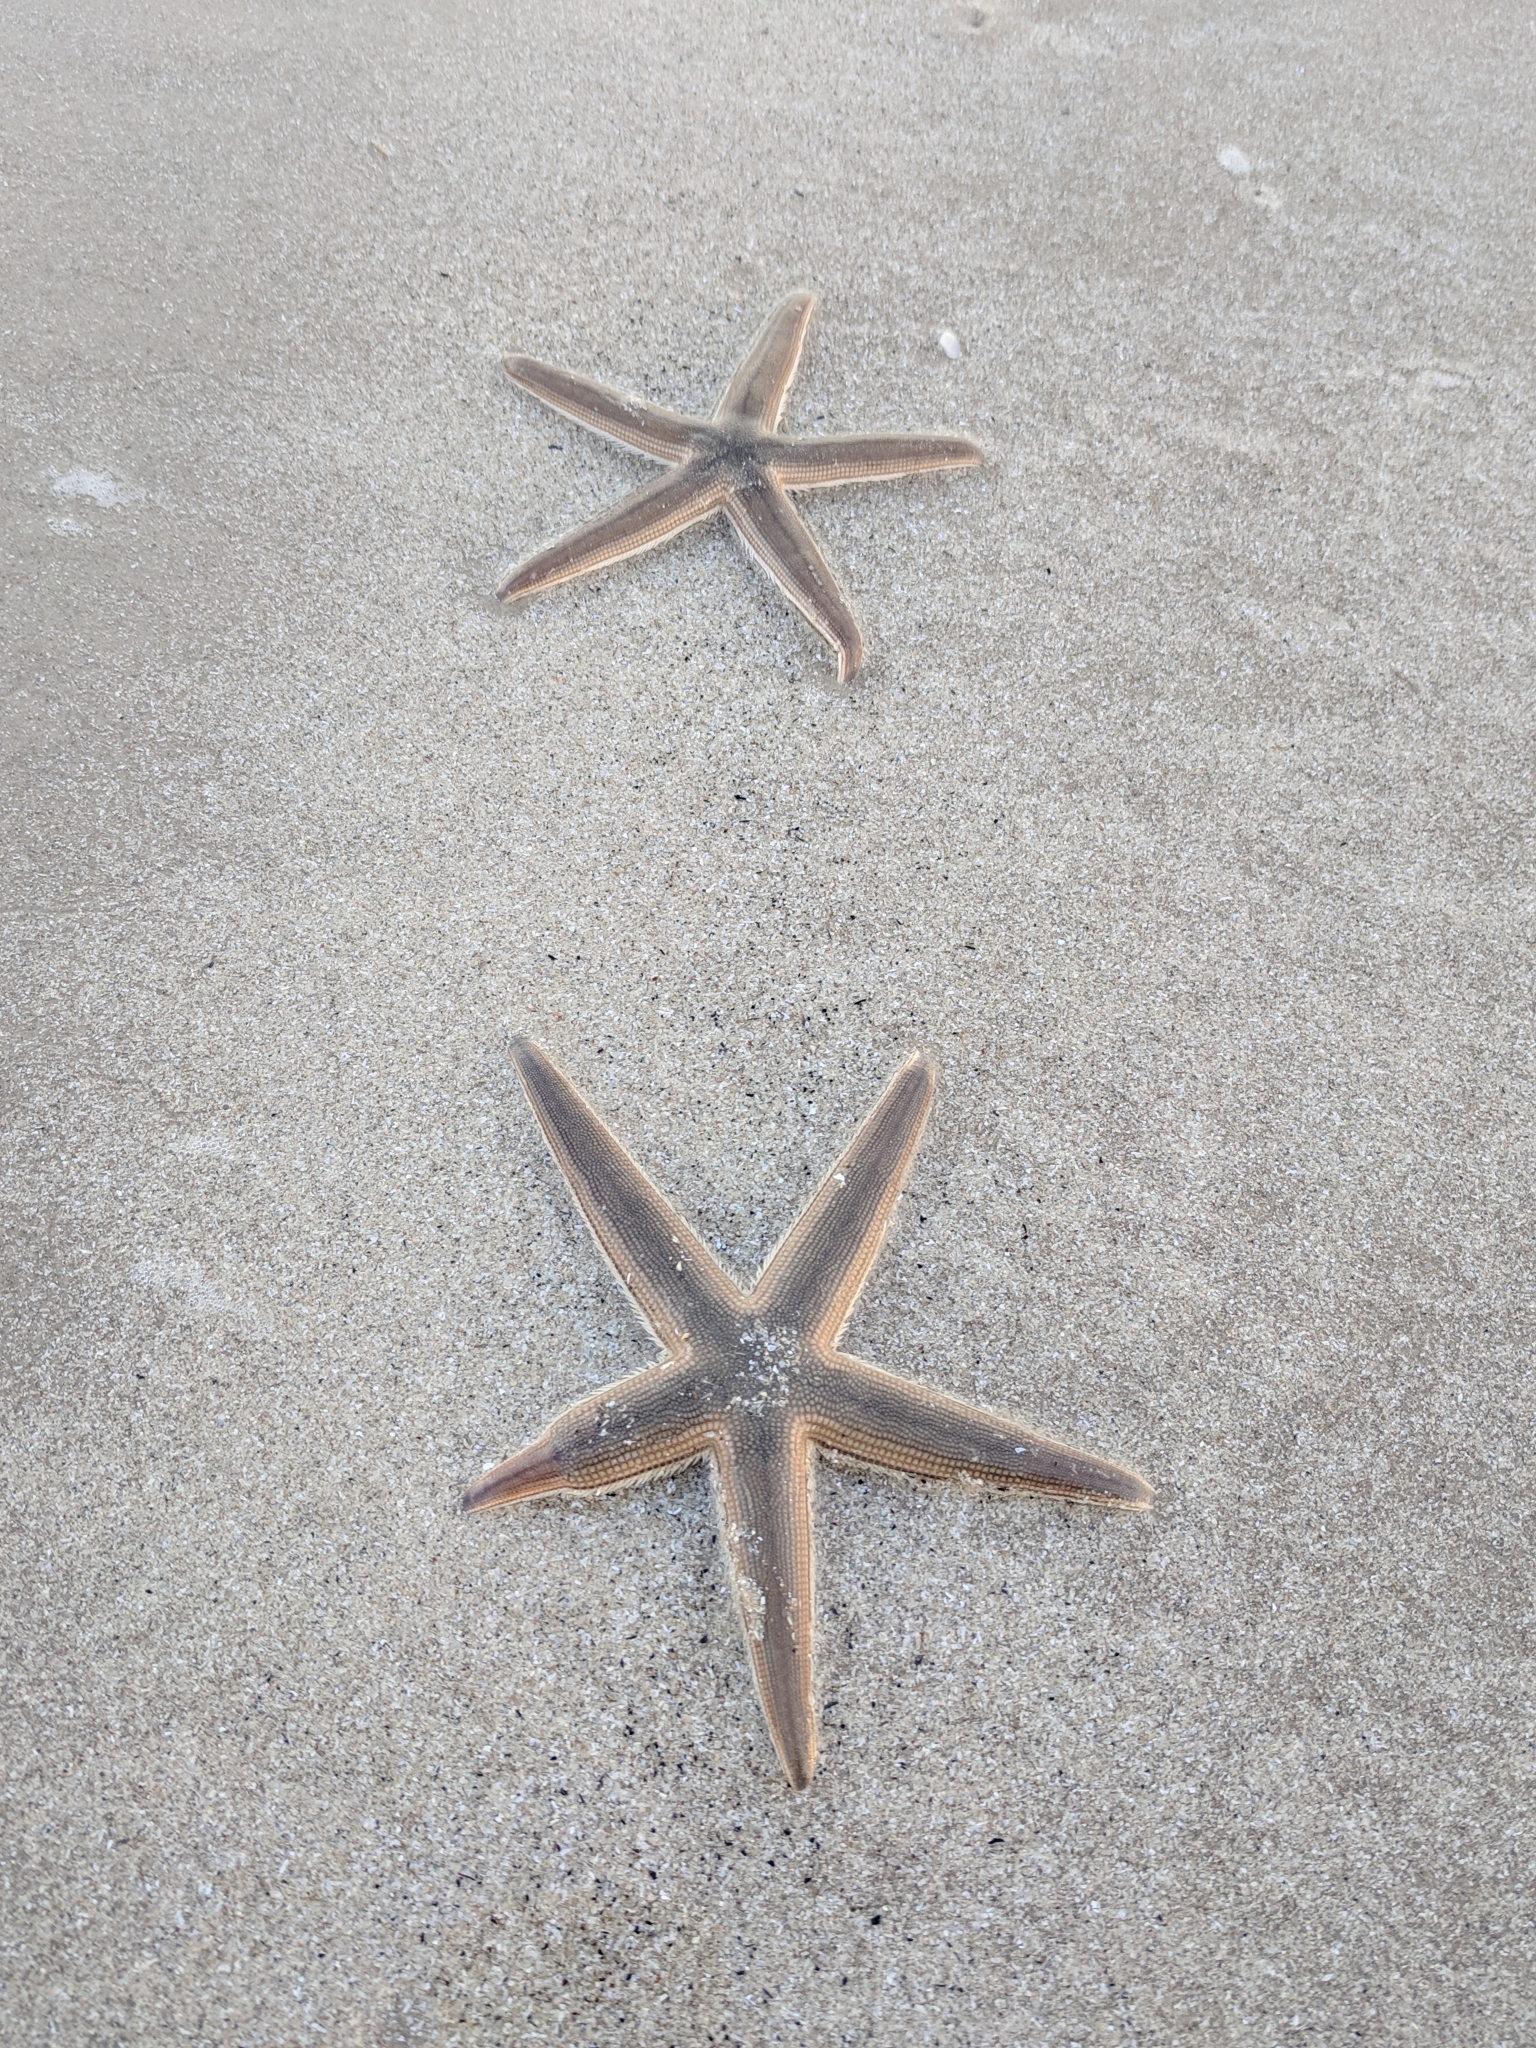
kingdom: Animalia
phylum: Echinodermata
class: Asteroidea
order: Paxillosida
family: Luidiidae
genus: Luidia
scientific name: Luidia clathrata
